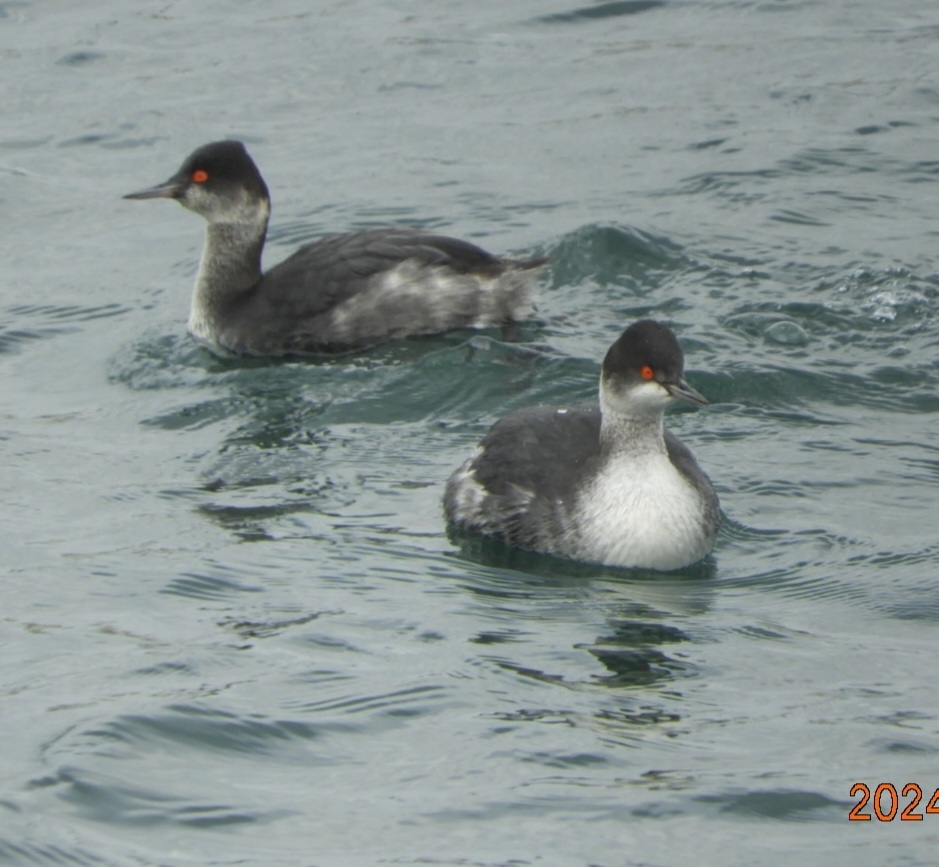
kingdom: Animalia
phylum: Chordata
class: Aves
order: Podicipediformes
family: Podicipedidae
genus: Podiceps
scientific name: Podiceps nigricollis
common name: Black-necked grebe
